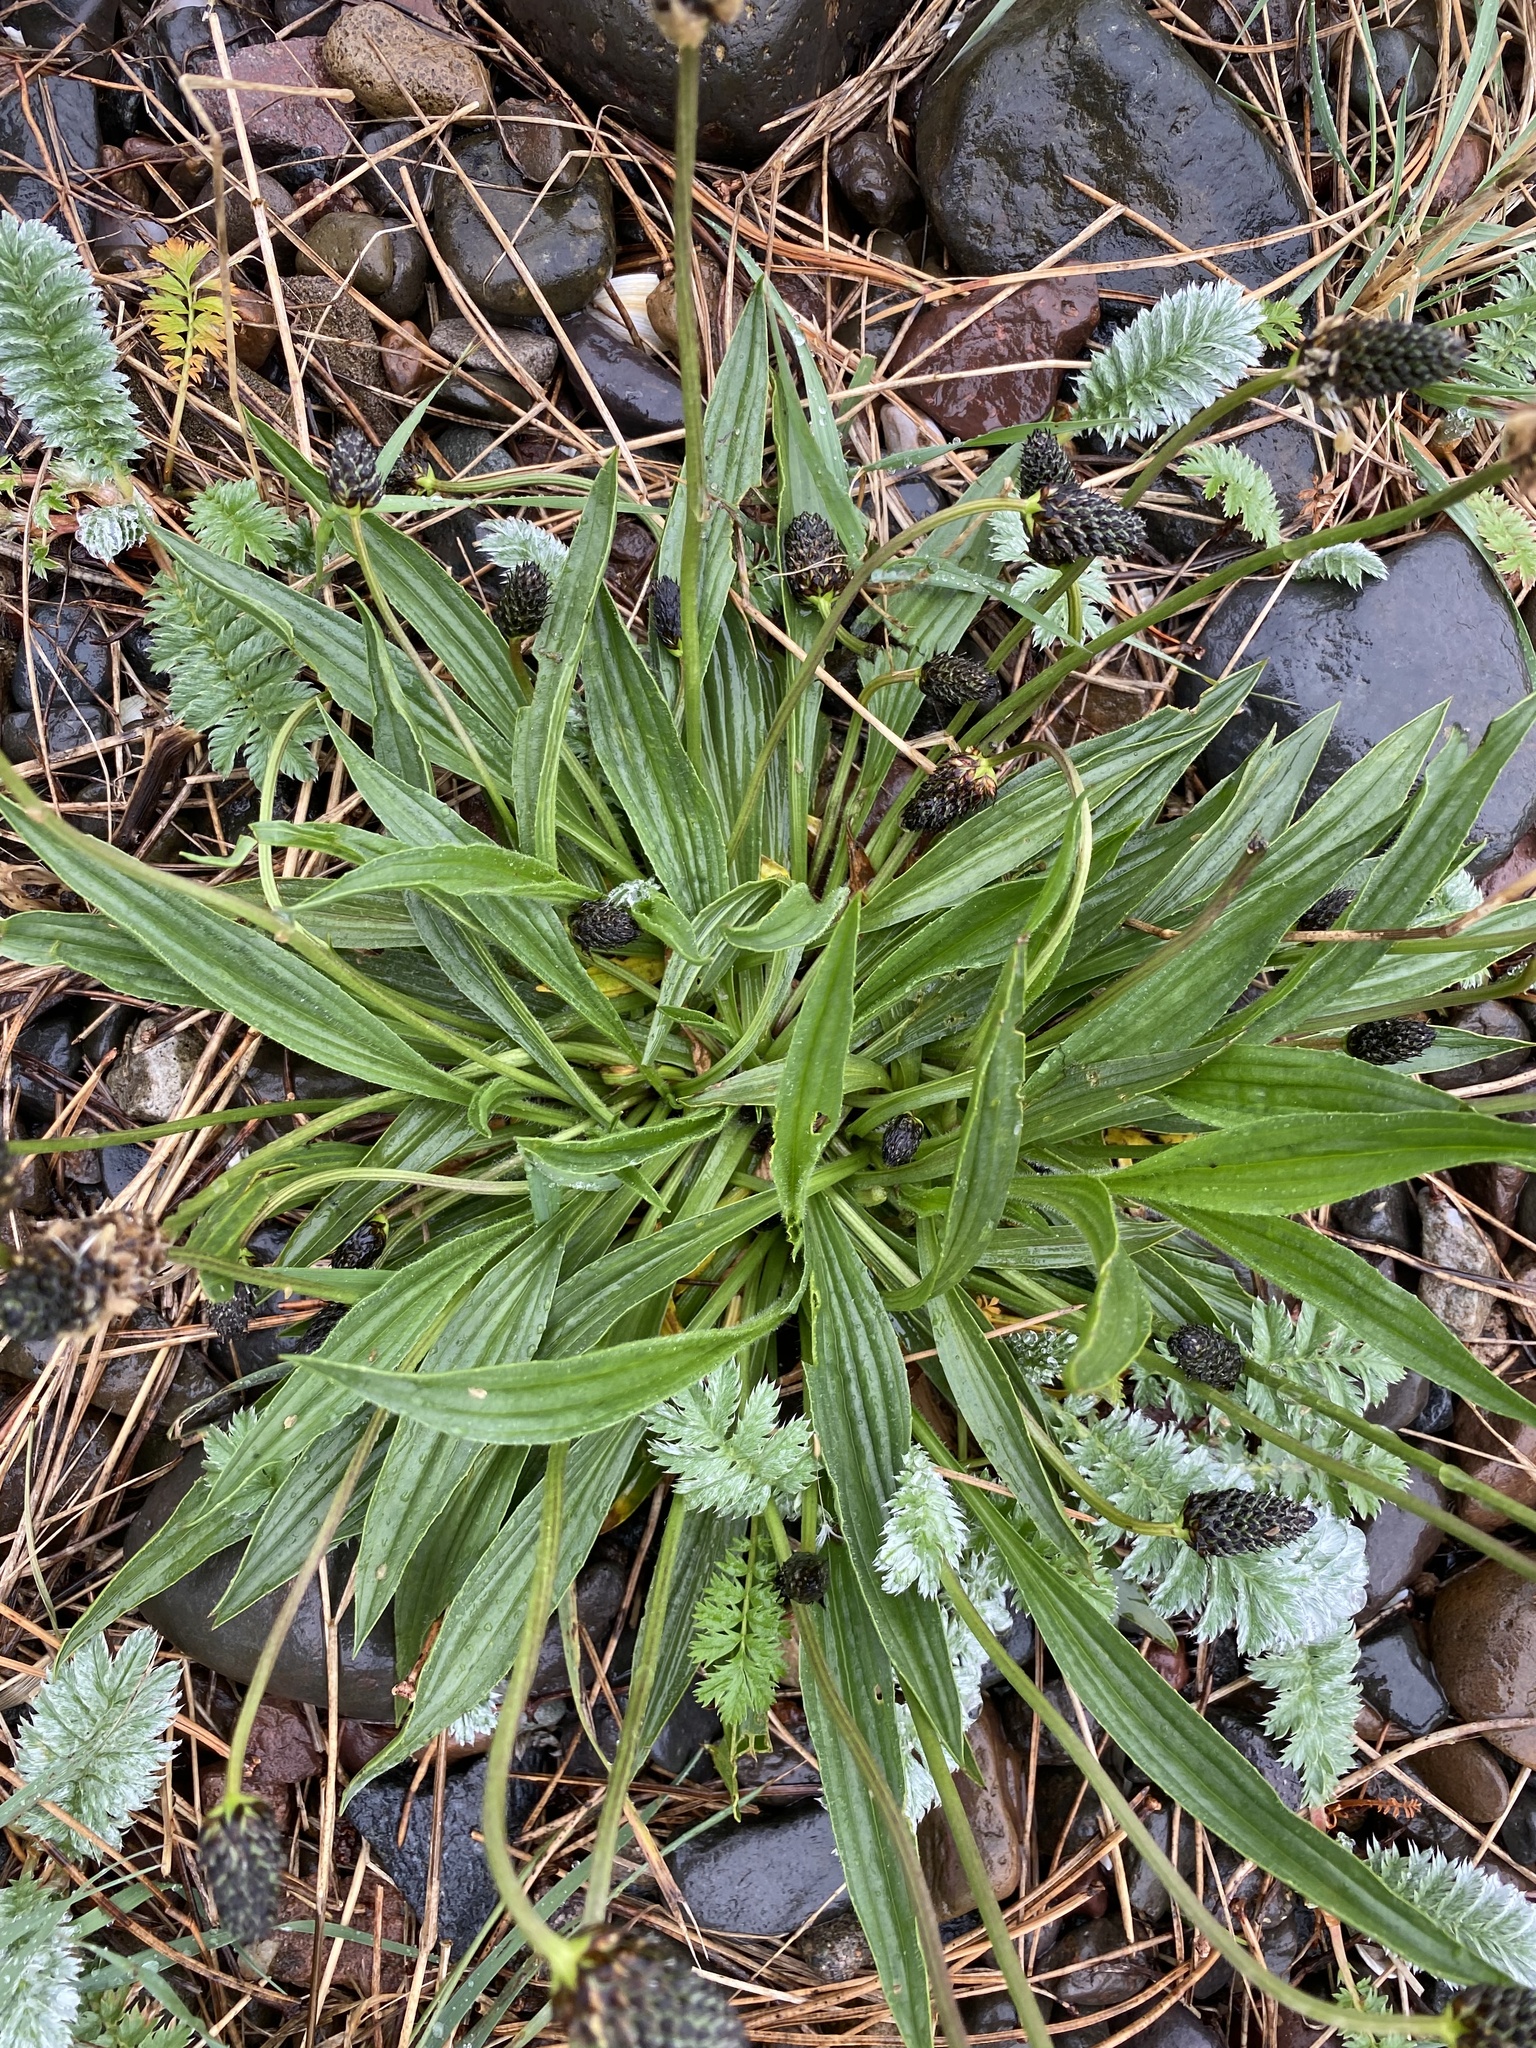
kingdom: Plantae
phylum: Tracheophyta
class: Magnoliopsida
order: Lamiales
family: Plantaginaceae
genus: Plantago
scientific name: Plantago lanceolata
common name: Ribwort plantain
